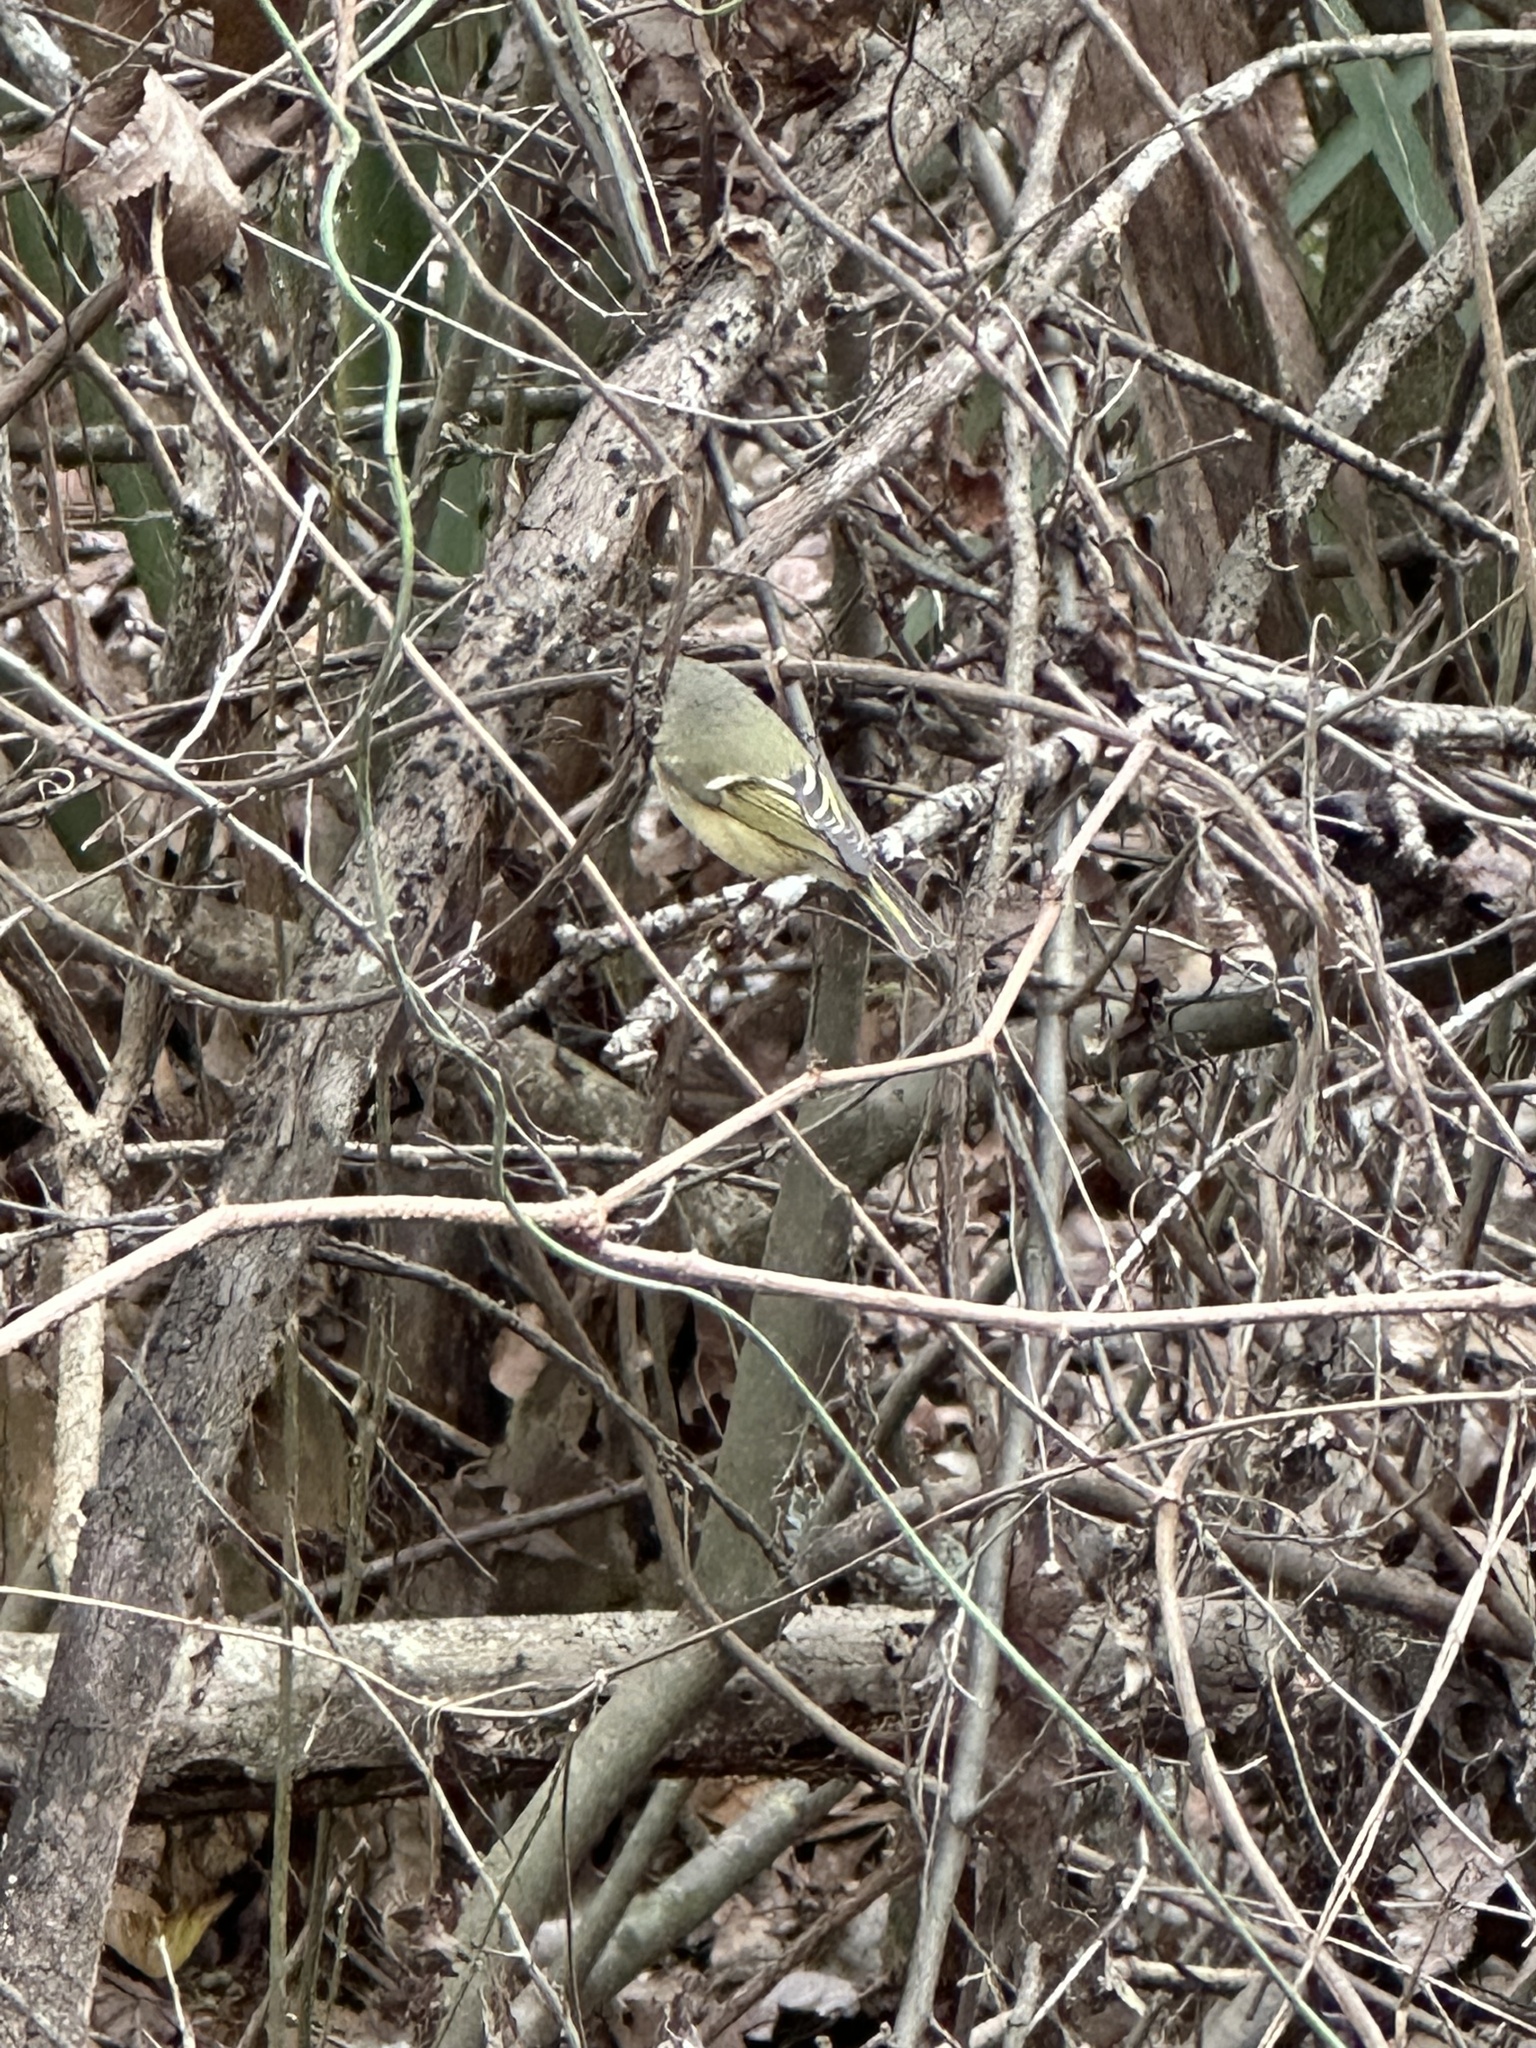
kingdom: Animalia
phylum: Chordata
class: Aves
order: Passeriformes
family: Regulidae
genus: Regulus
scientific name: Regulus calendula
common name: Ruby-crowned kinglet
